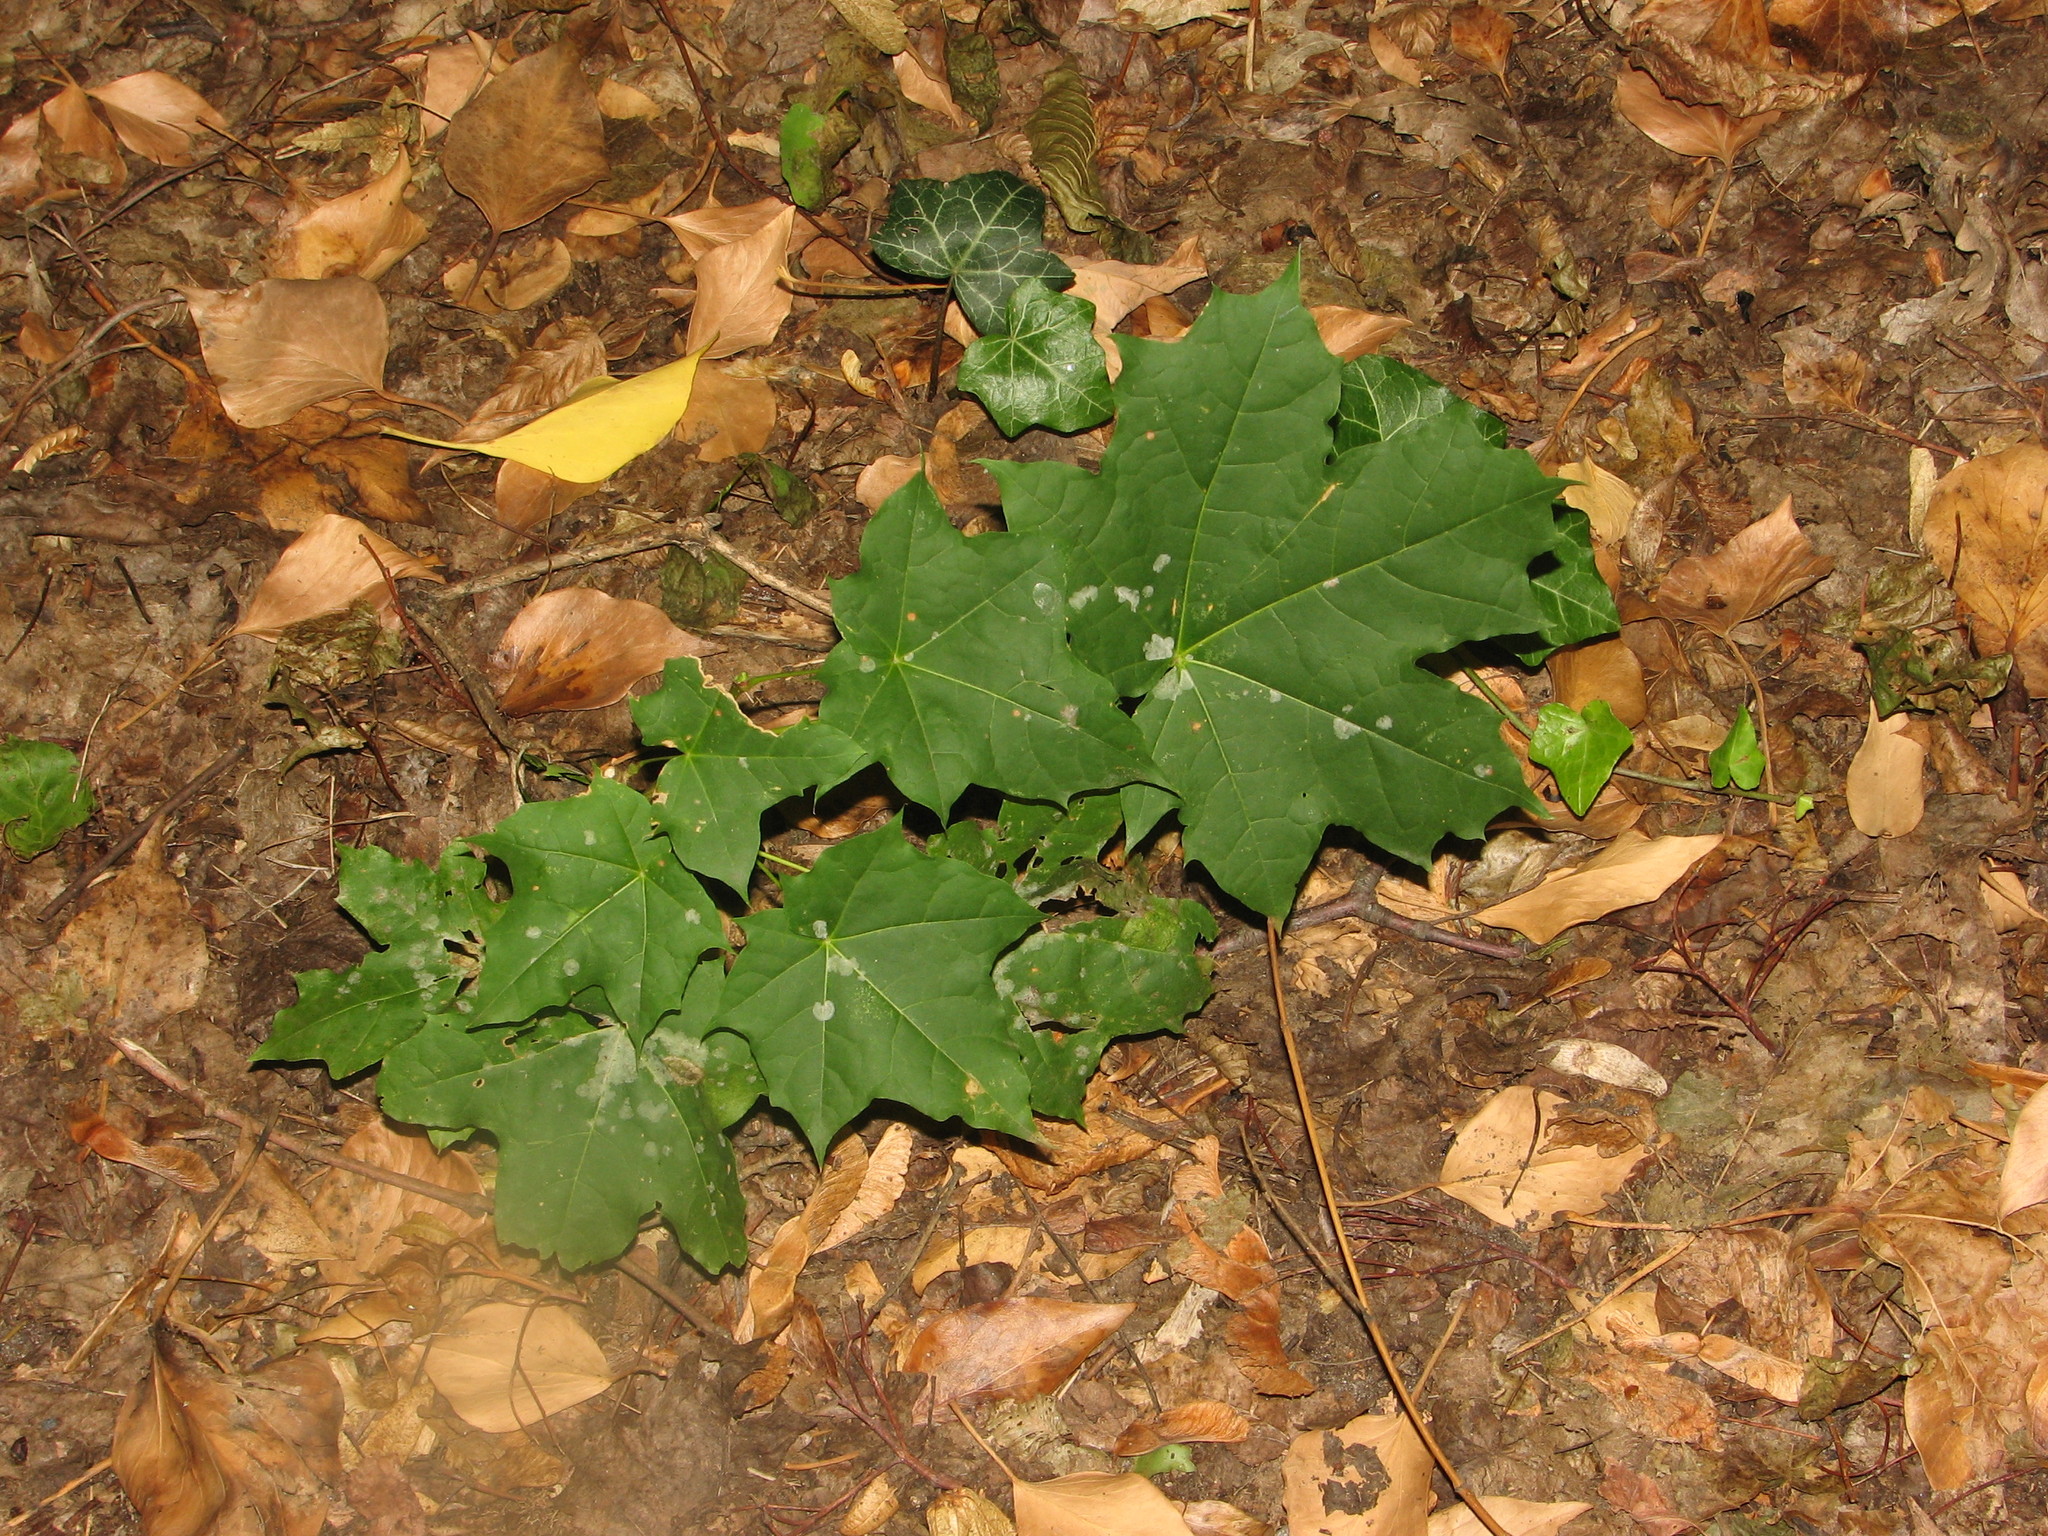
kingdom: Plantae
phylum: Tracheophyta
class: Magnoliopsida
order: Sapindales
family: Sapindaceae
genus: Acer
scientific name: Acer platanoides
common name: Norway maple
